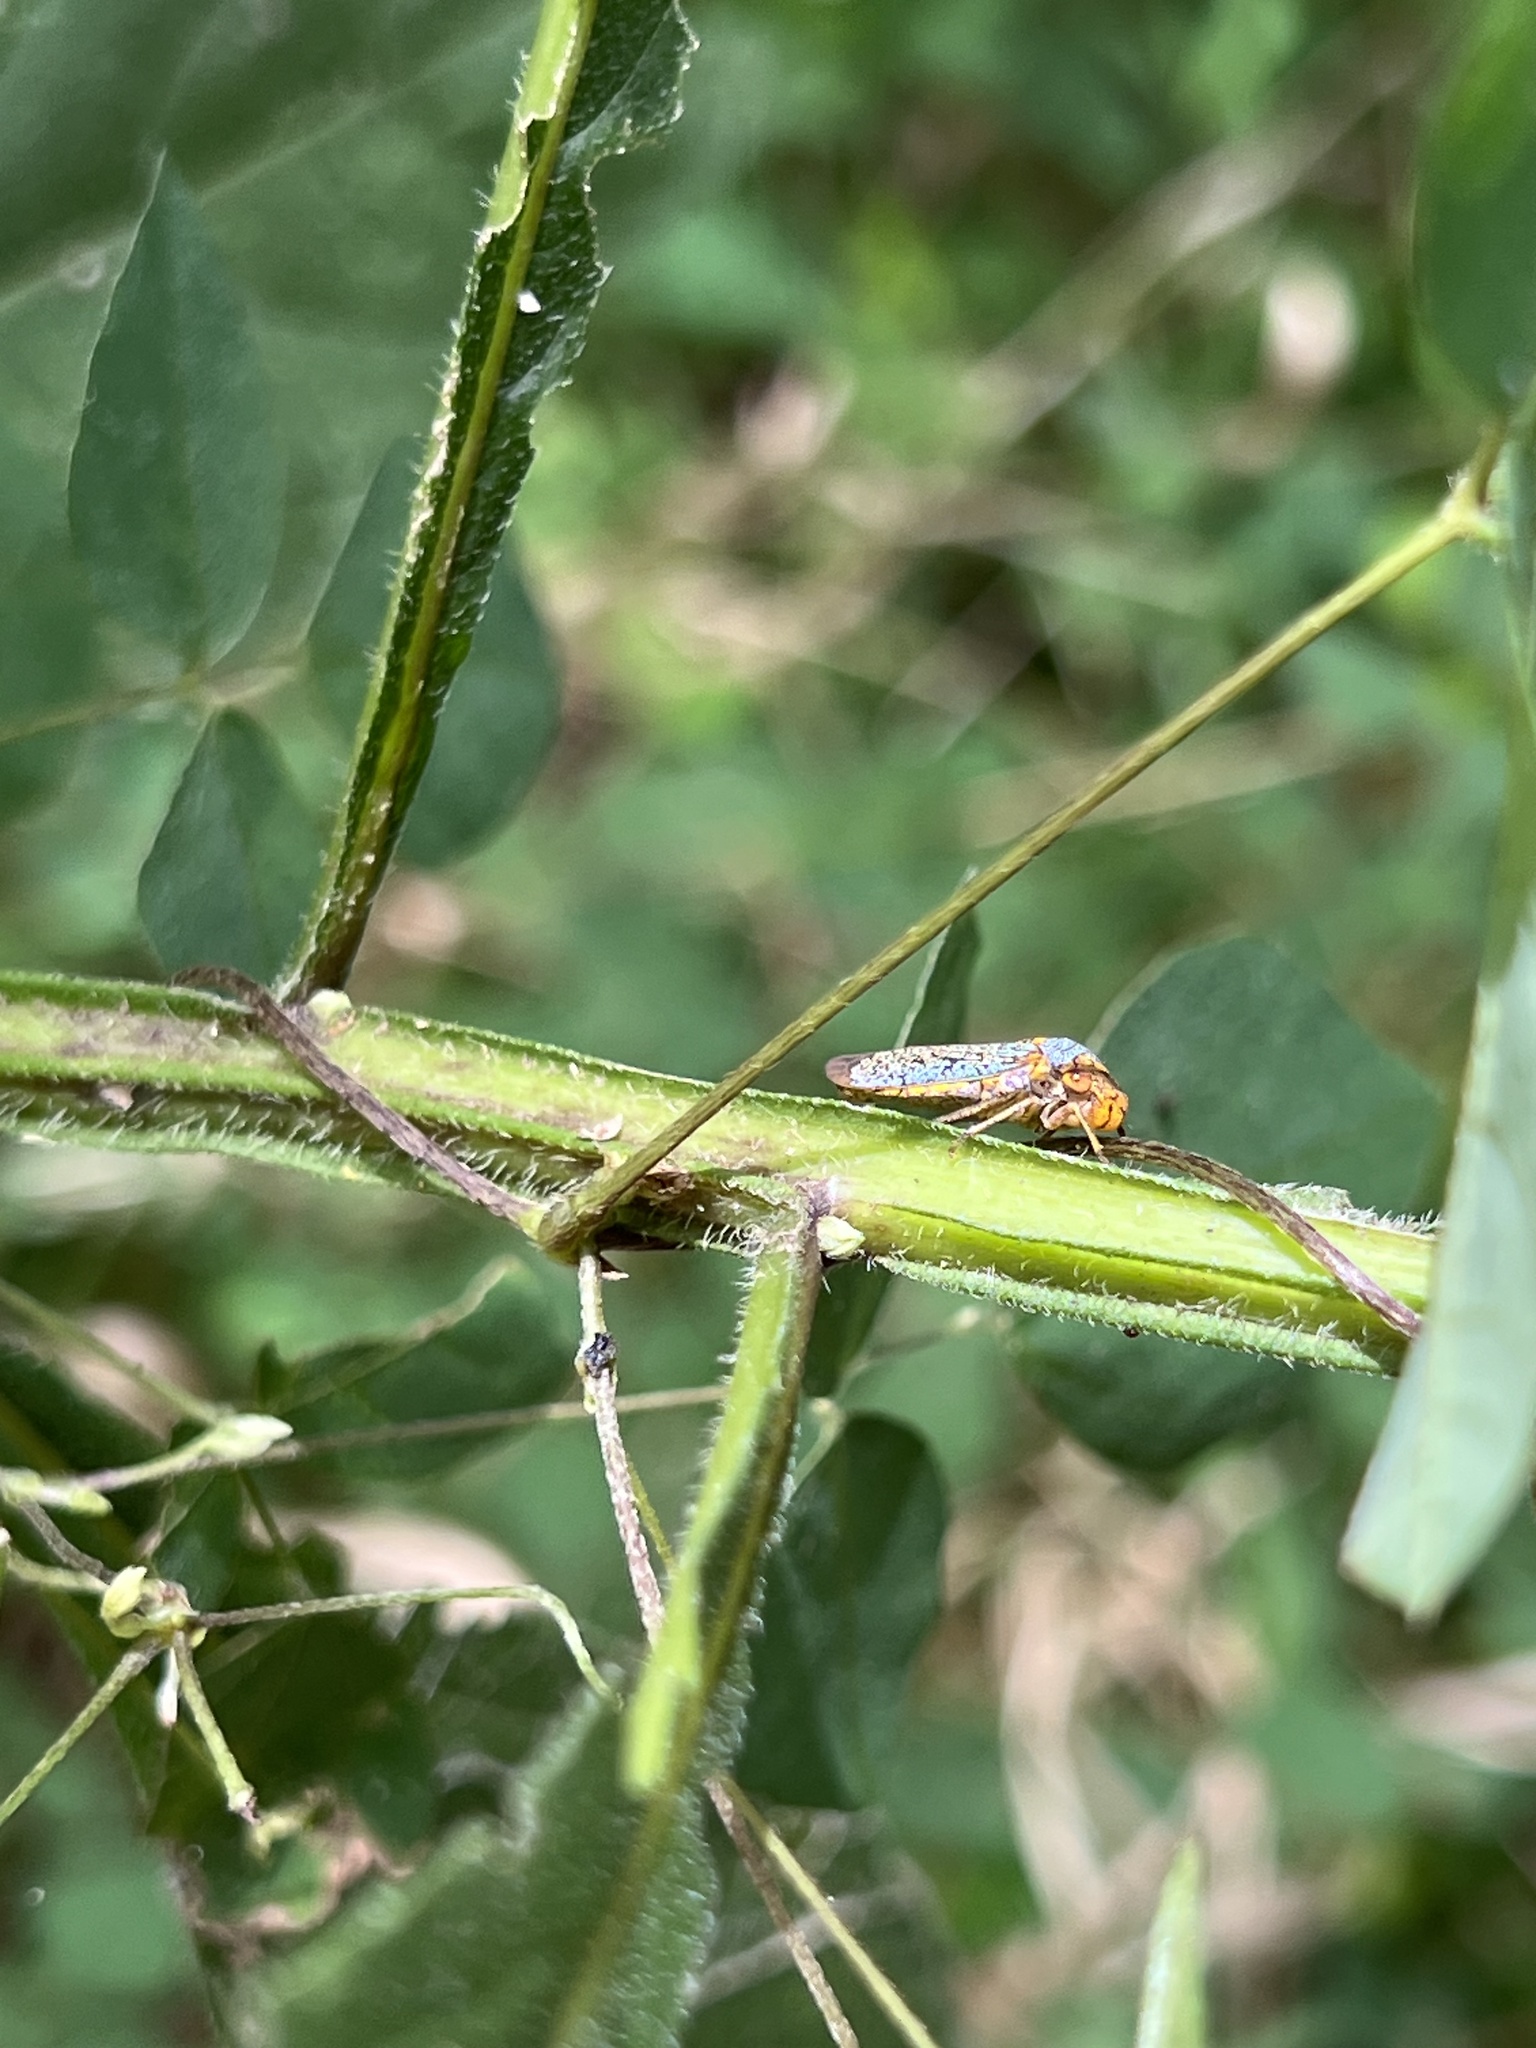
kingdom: Animalia
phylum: Arthropoda
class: Insecta
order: Hemiptera
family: Cicadellidae
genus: Oncometopia
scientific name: Oncometopia orbona
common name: Broad-headed sharpshooter
